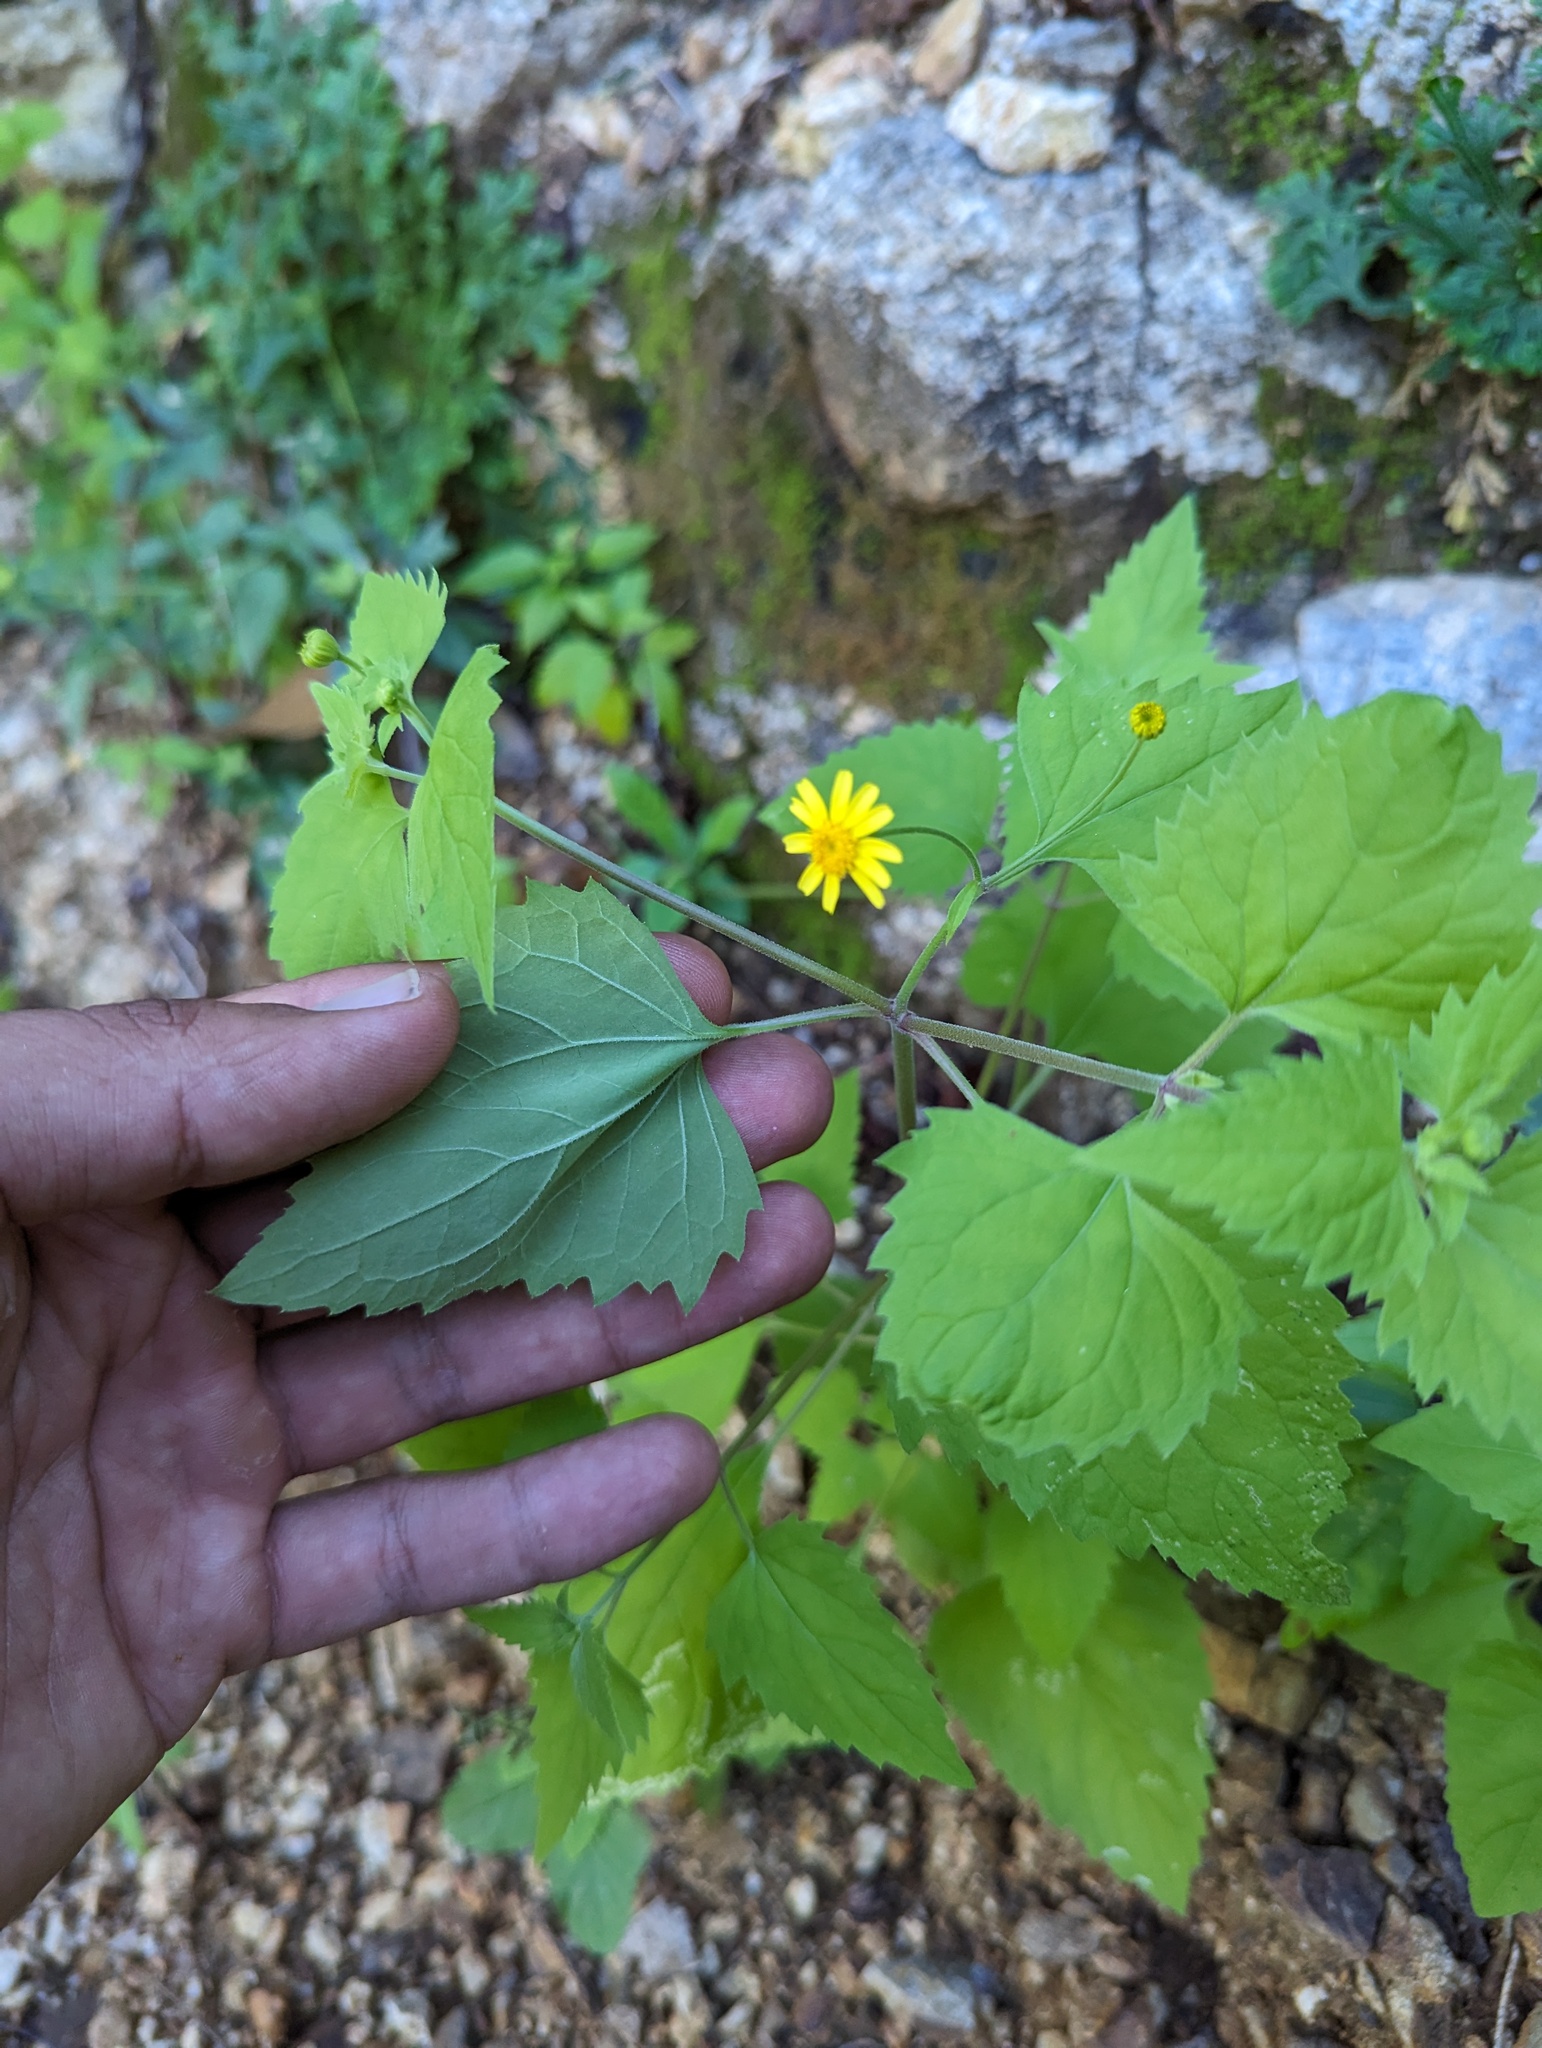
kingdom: Plantae
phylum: Tracheophyta
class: Magnoliopsida
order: Asterales
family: Asteraceae
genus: Perityle
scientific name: Perityle cuneata
